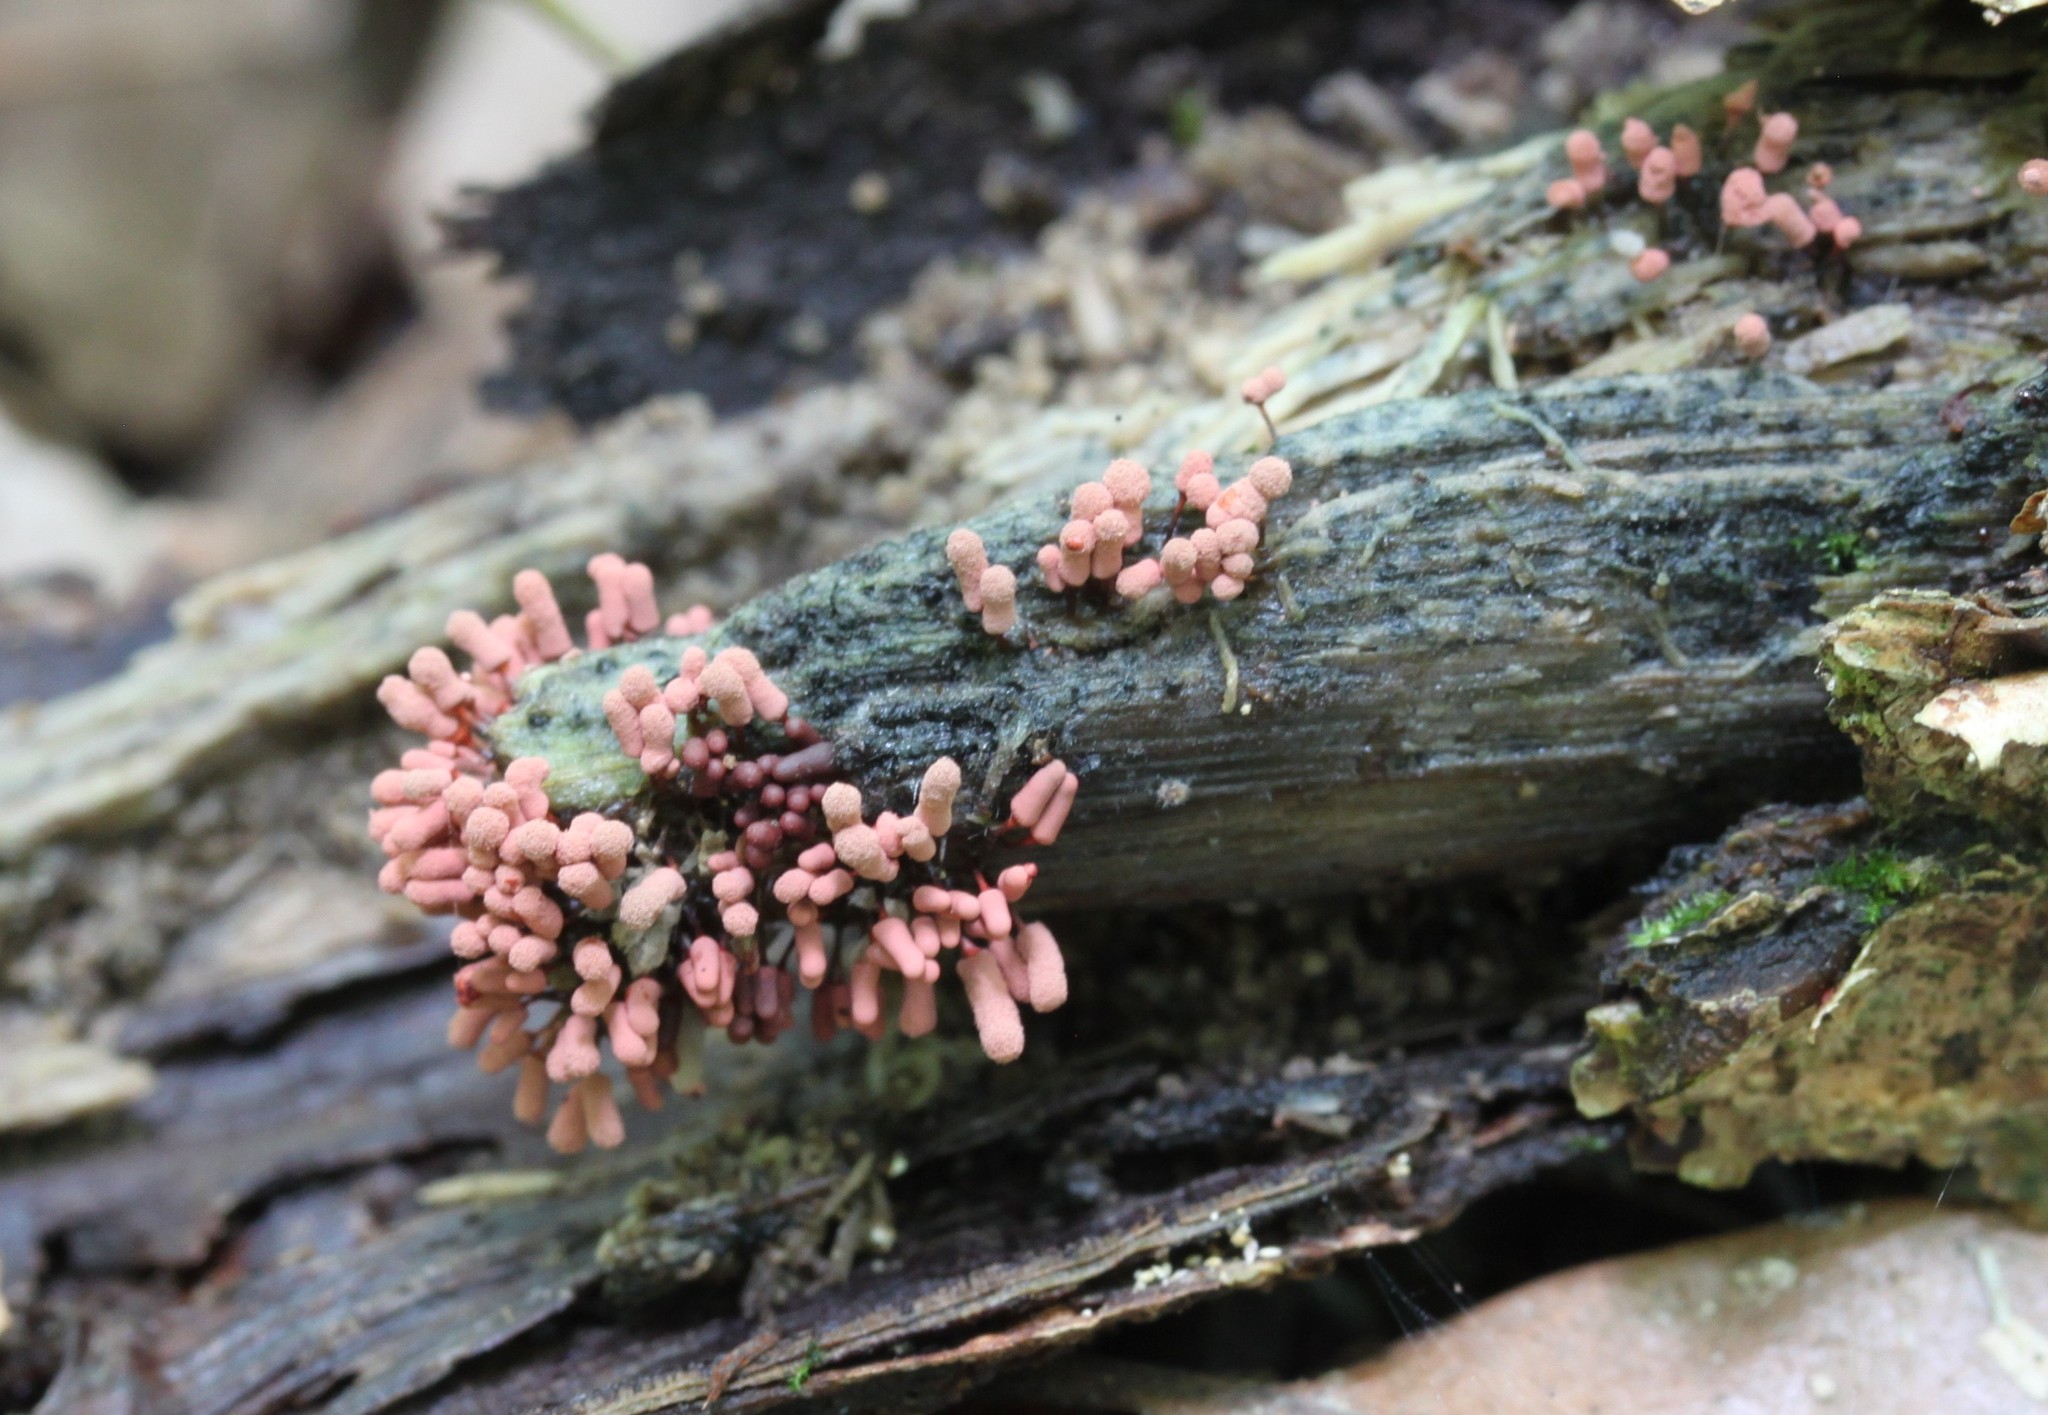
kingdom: Protozoa
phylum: Mycetozoa
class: Myxomycetes
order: Trichiales
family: Arcyriaceae
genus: Arcyria
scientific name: Arcyria denudata
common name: Carnival candy slime mold
